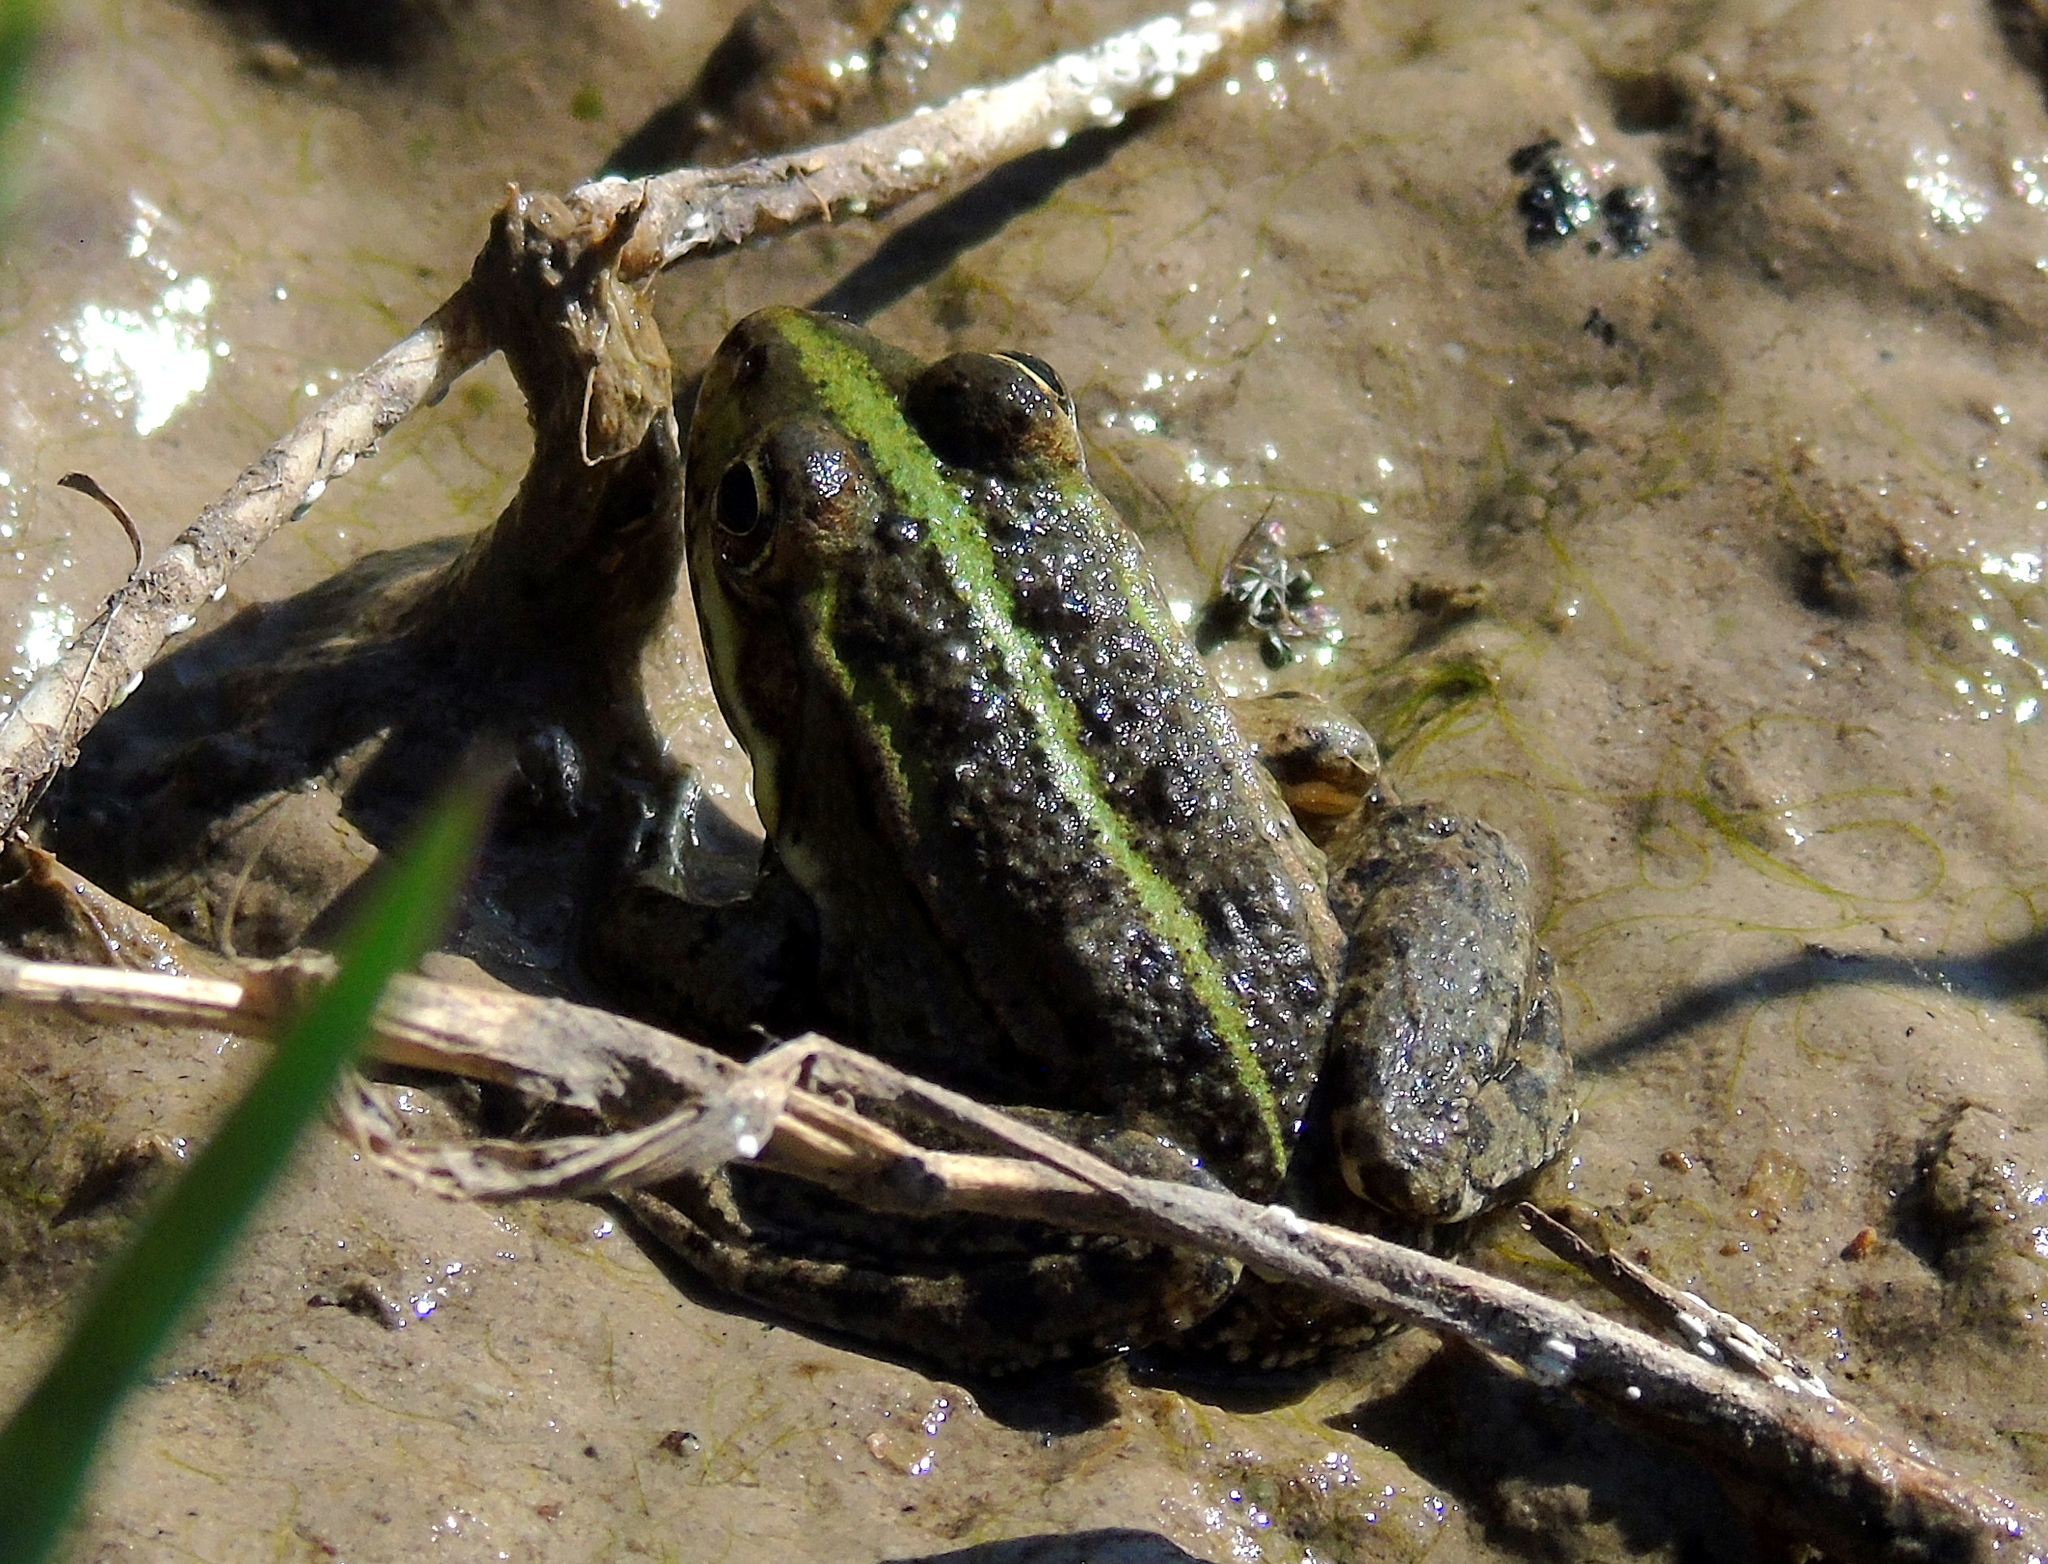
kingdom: Animalia
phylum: Chordata
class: Amphibia
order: Anura
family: Ranidae
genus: Pelophylax
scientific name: Pelophylax ridibundus
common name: Marsh frog
